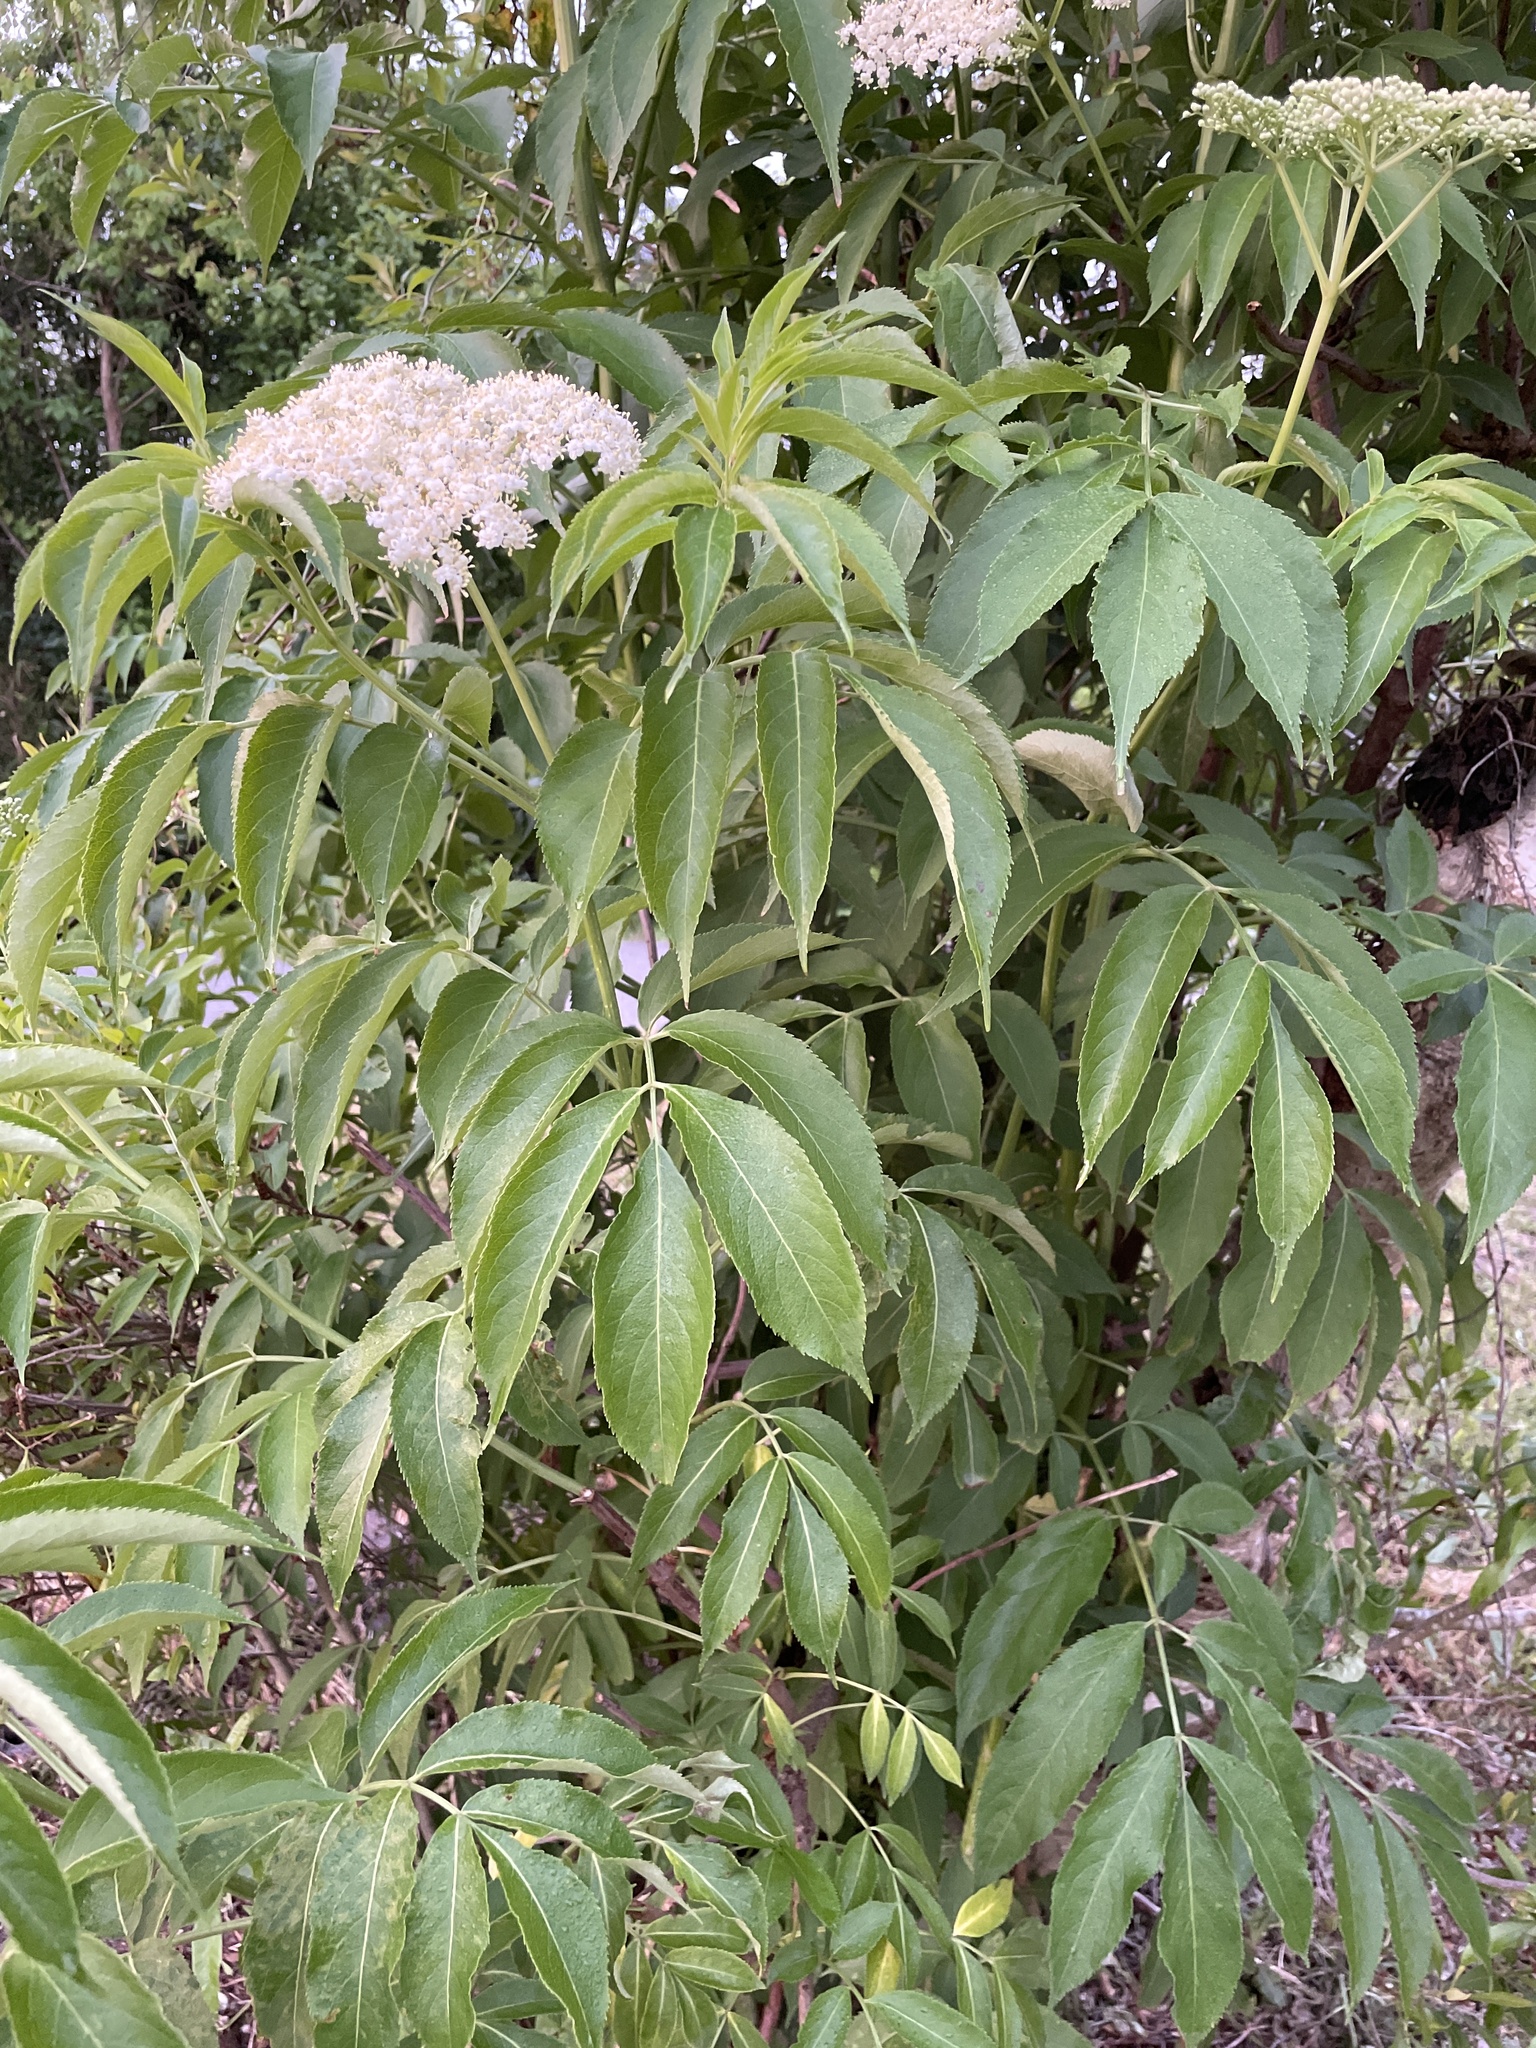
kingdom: Plantae
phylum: Tracheophyta
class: Magnoliopsida
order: Dipsacales
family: Viburnaceae
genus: Sambucus
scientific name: Sambucus canadensis
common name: American elder
